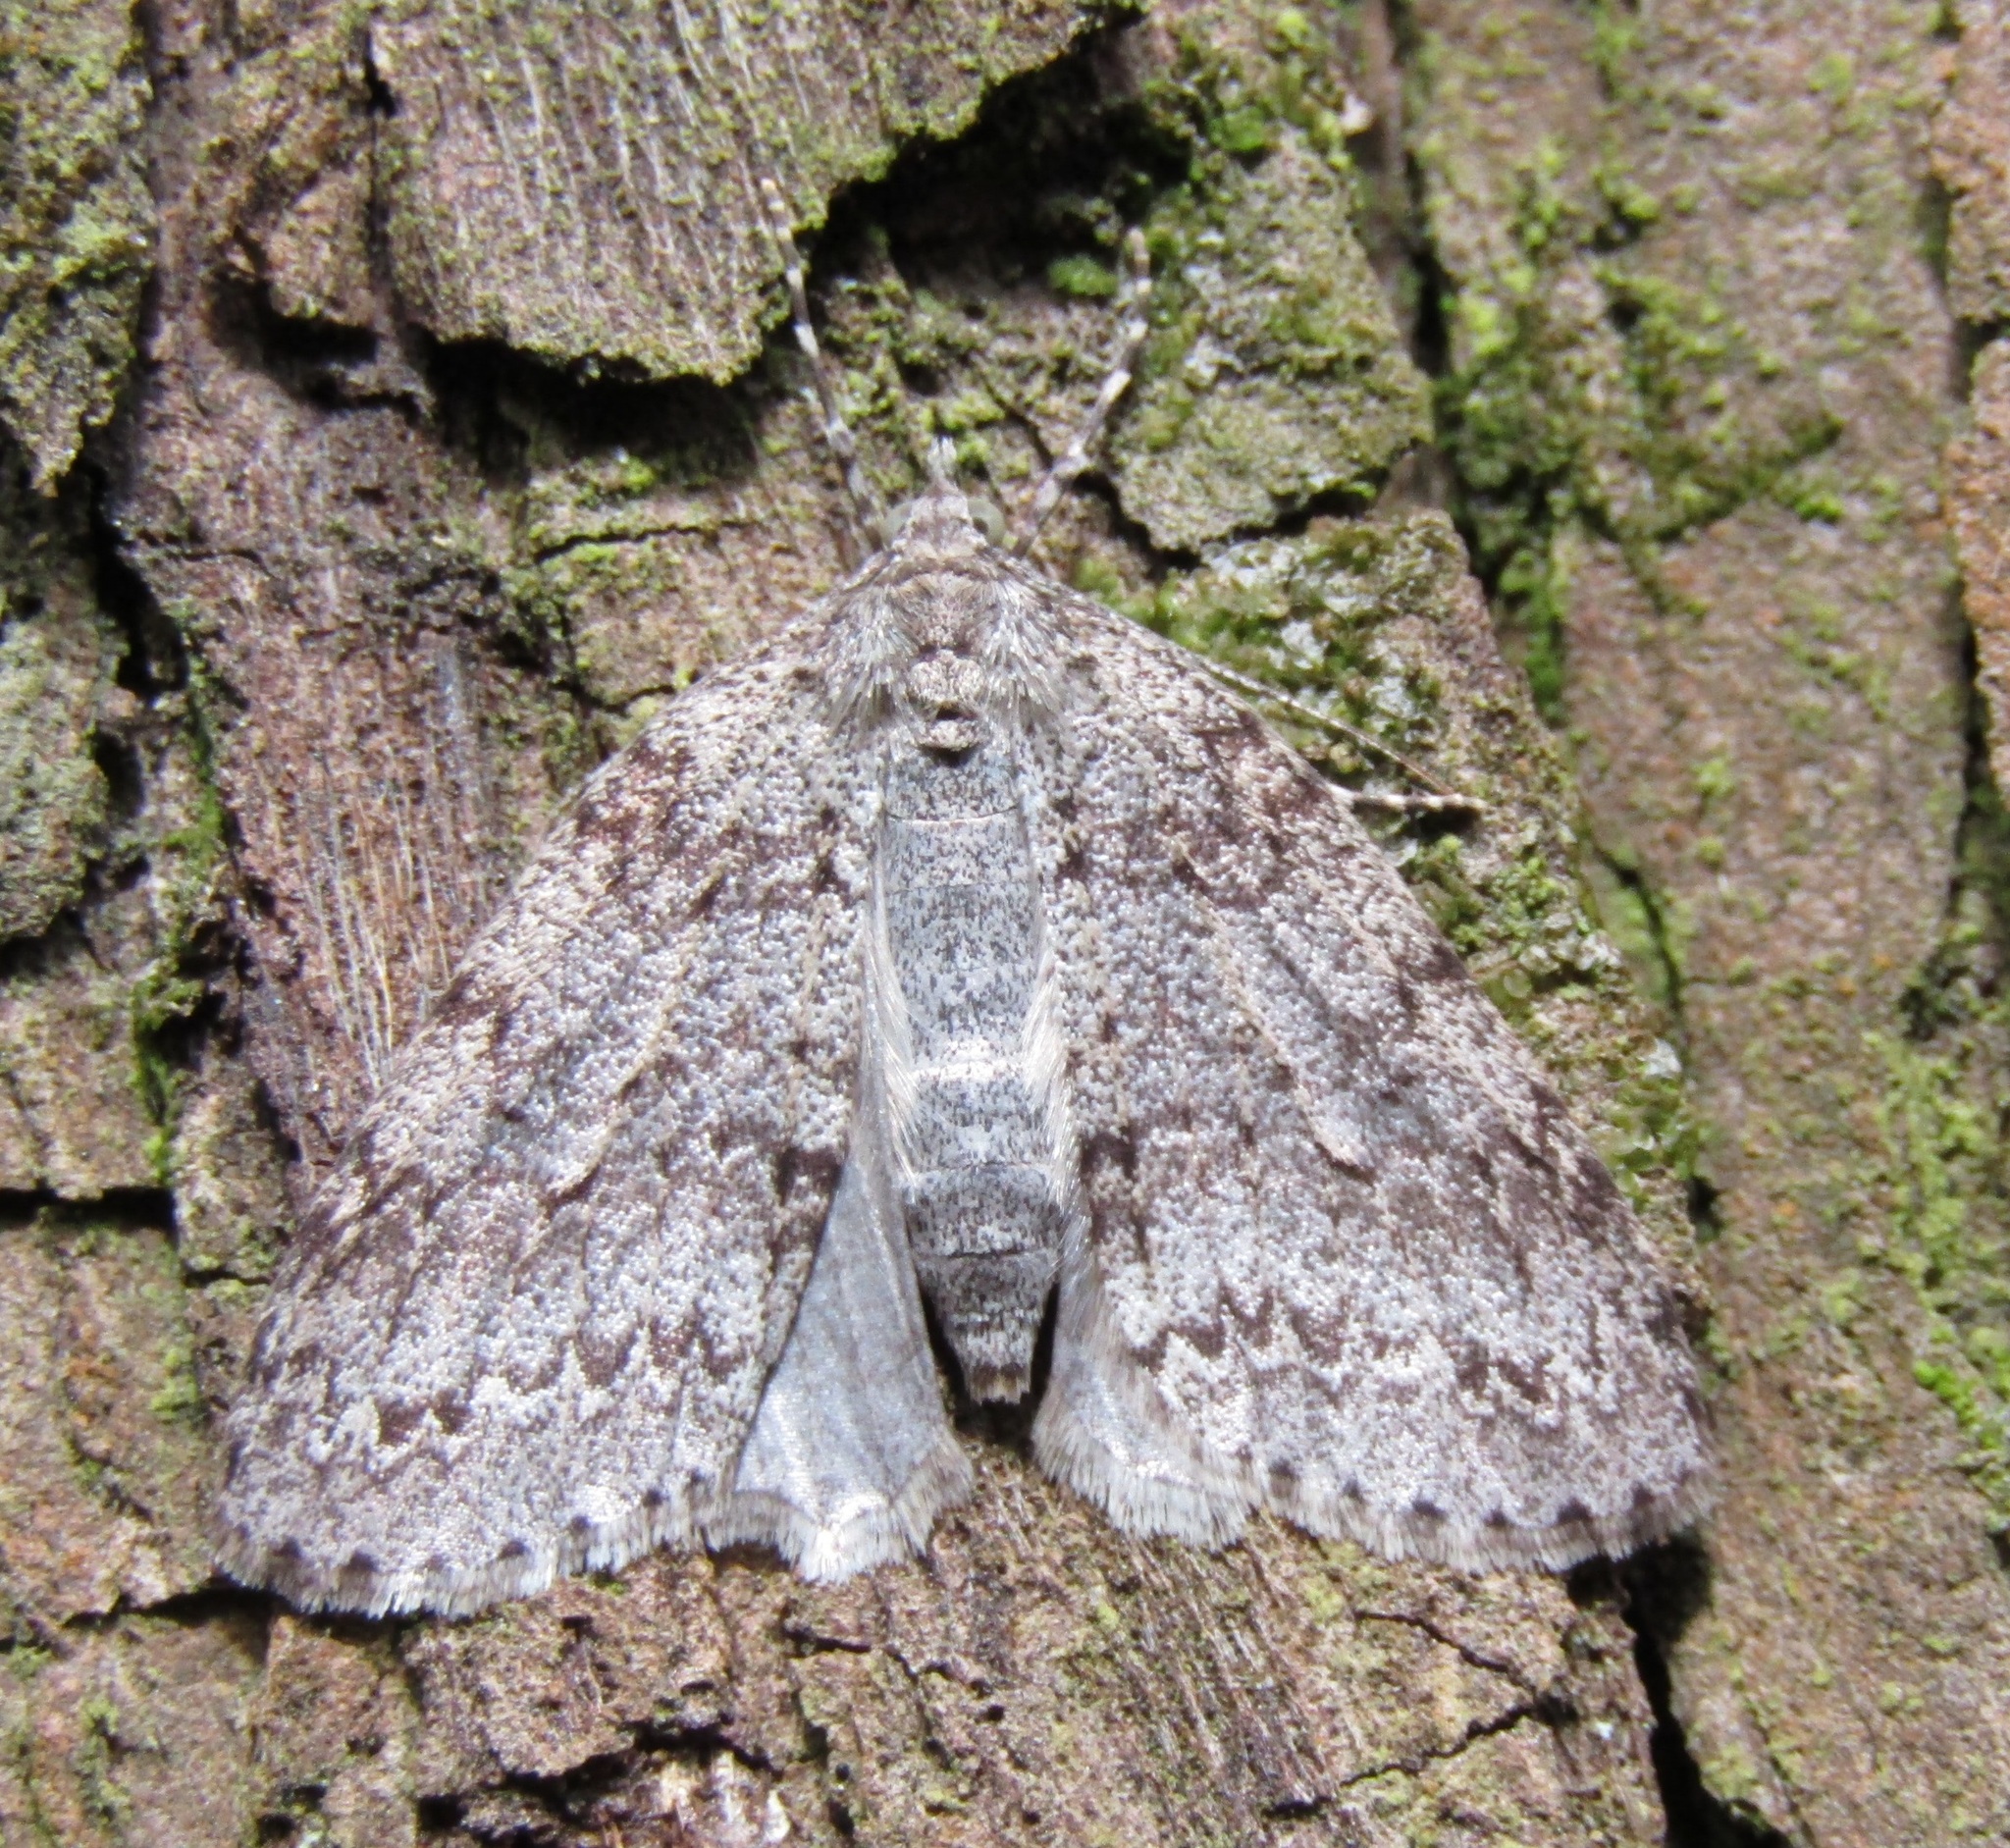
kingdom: Animalia
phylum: Arthropoda
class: Insecta
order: Lepidoptera
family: Geometridae
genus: Pseudocoremia
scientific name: Pseudocoremia fenerata
